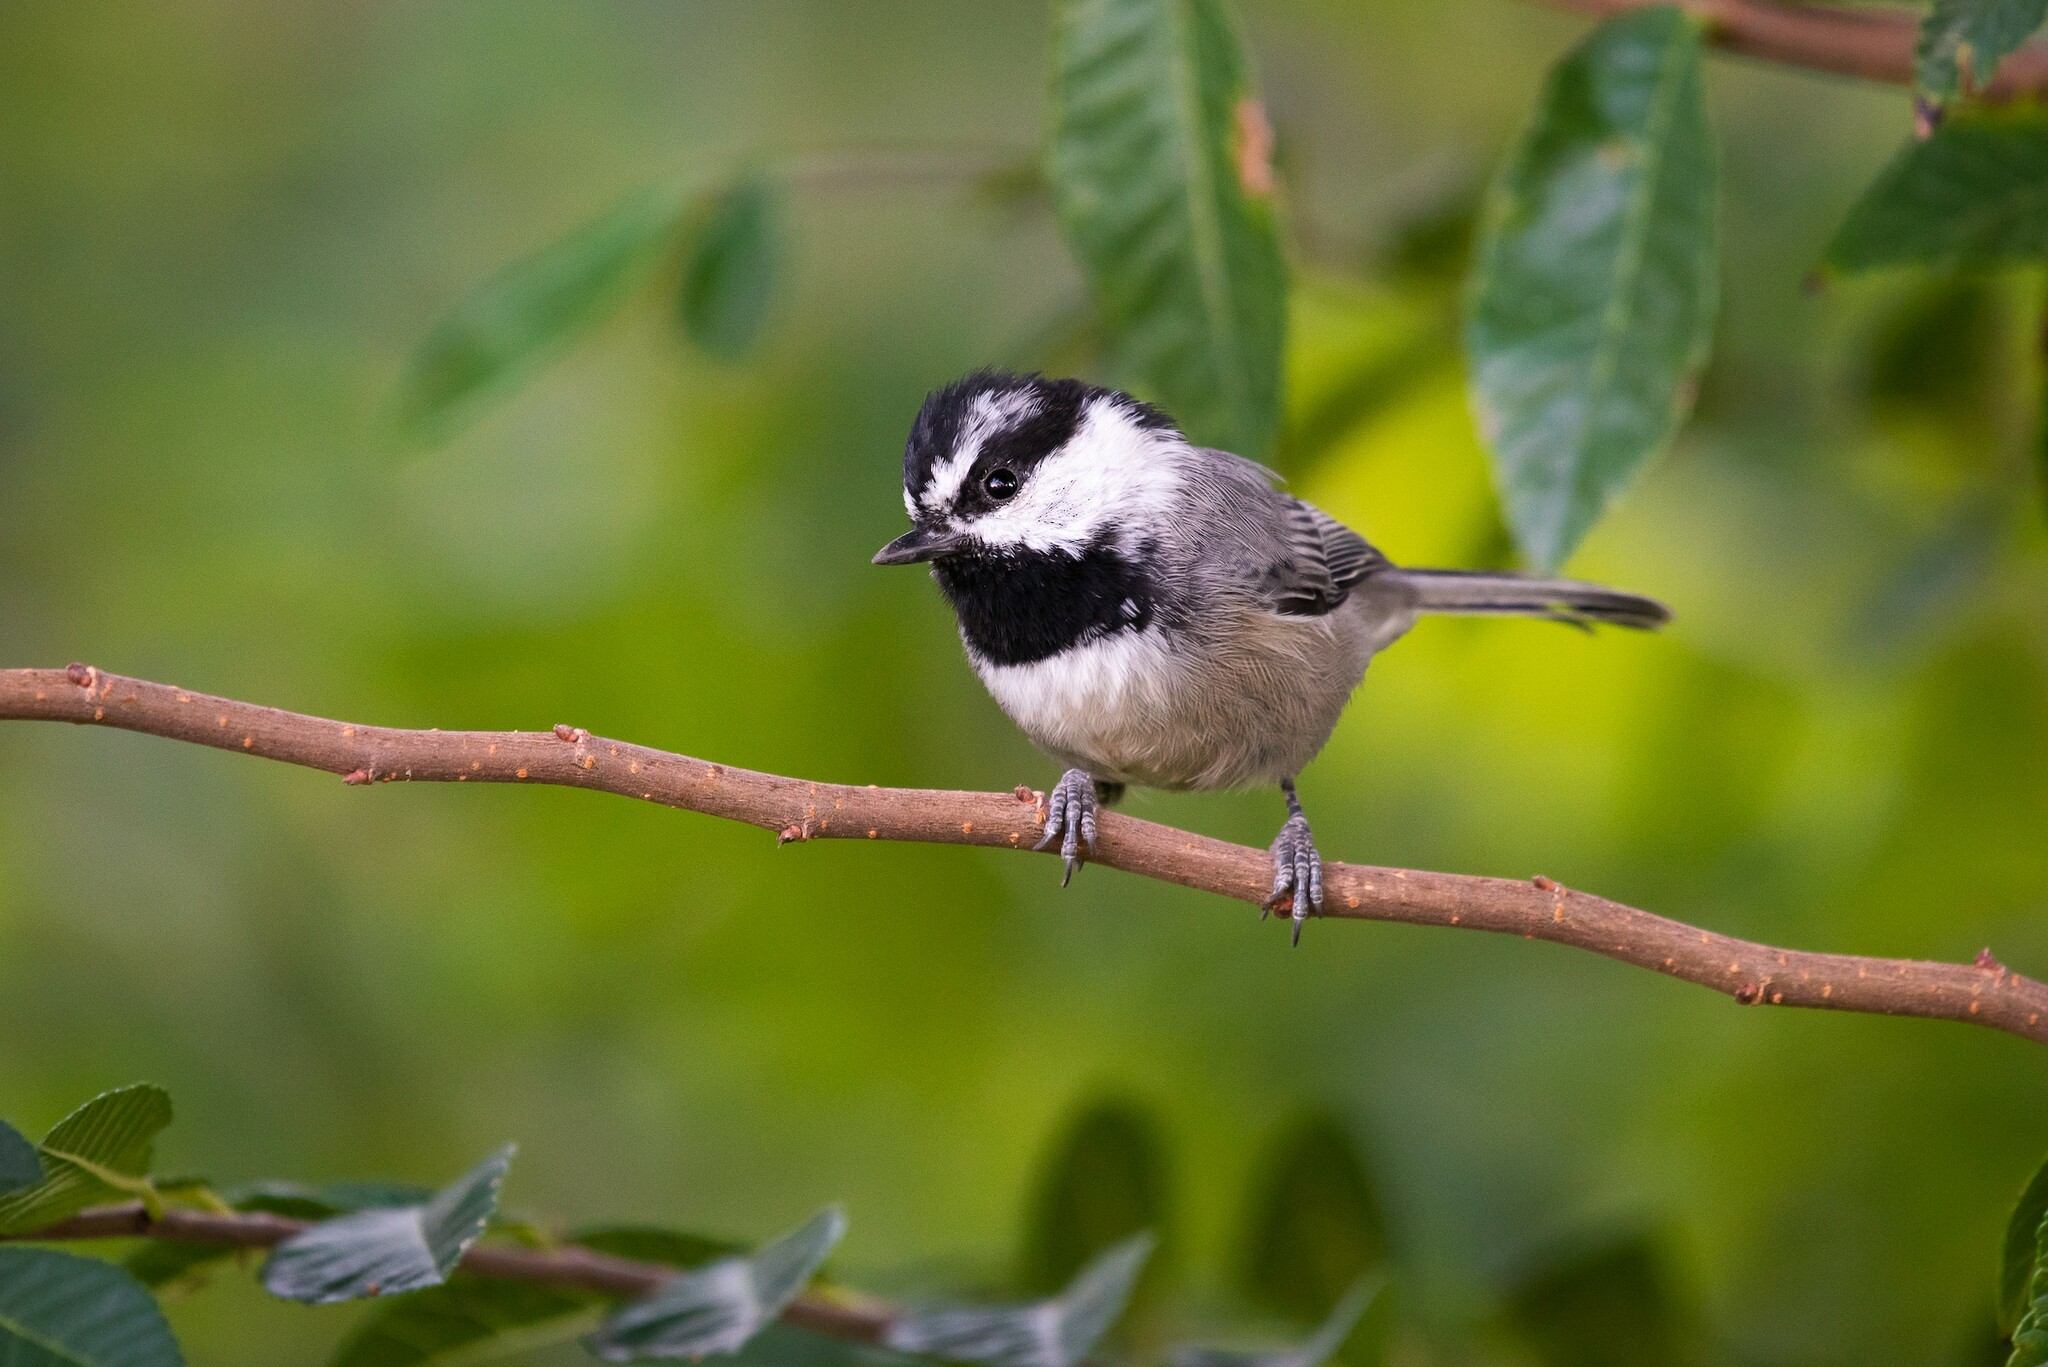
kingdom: Animalia
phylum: Chordata
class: Aves
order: Passeriformes
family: Paridae
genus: Poecile
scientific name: Poecile gambeli
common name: Mountain chickadee
